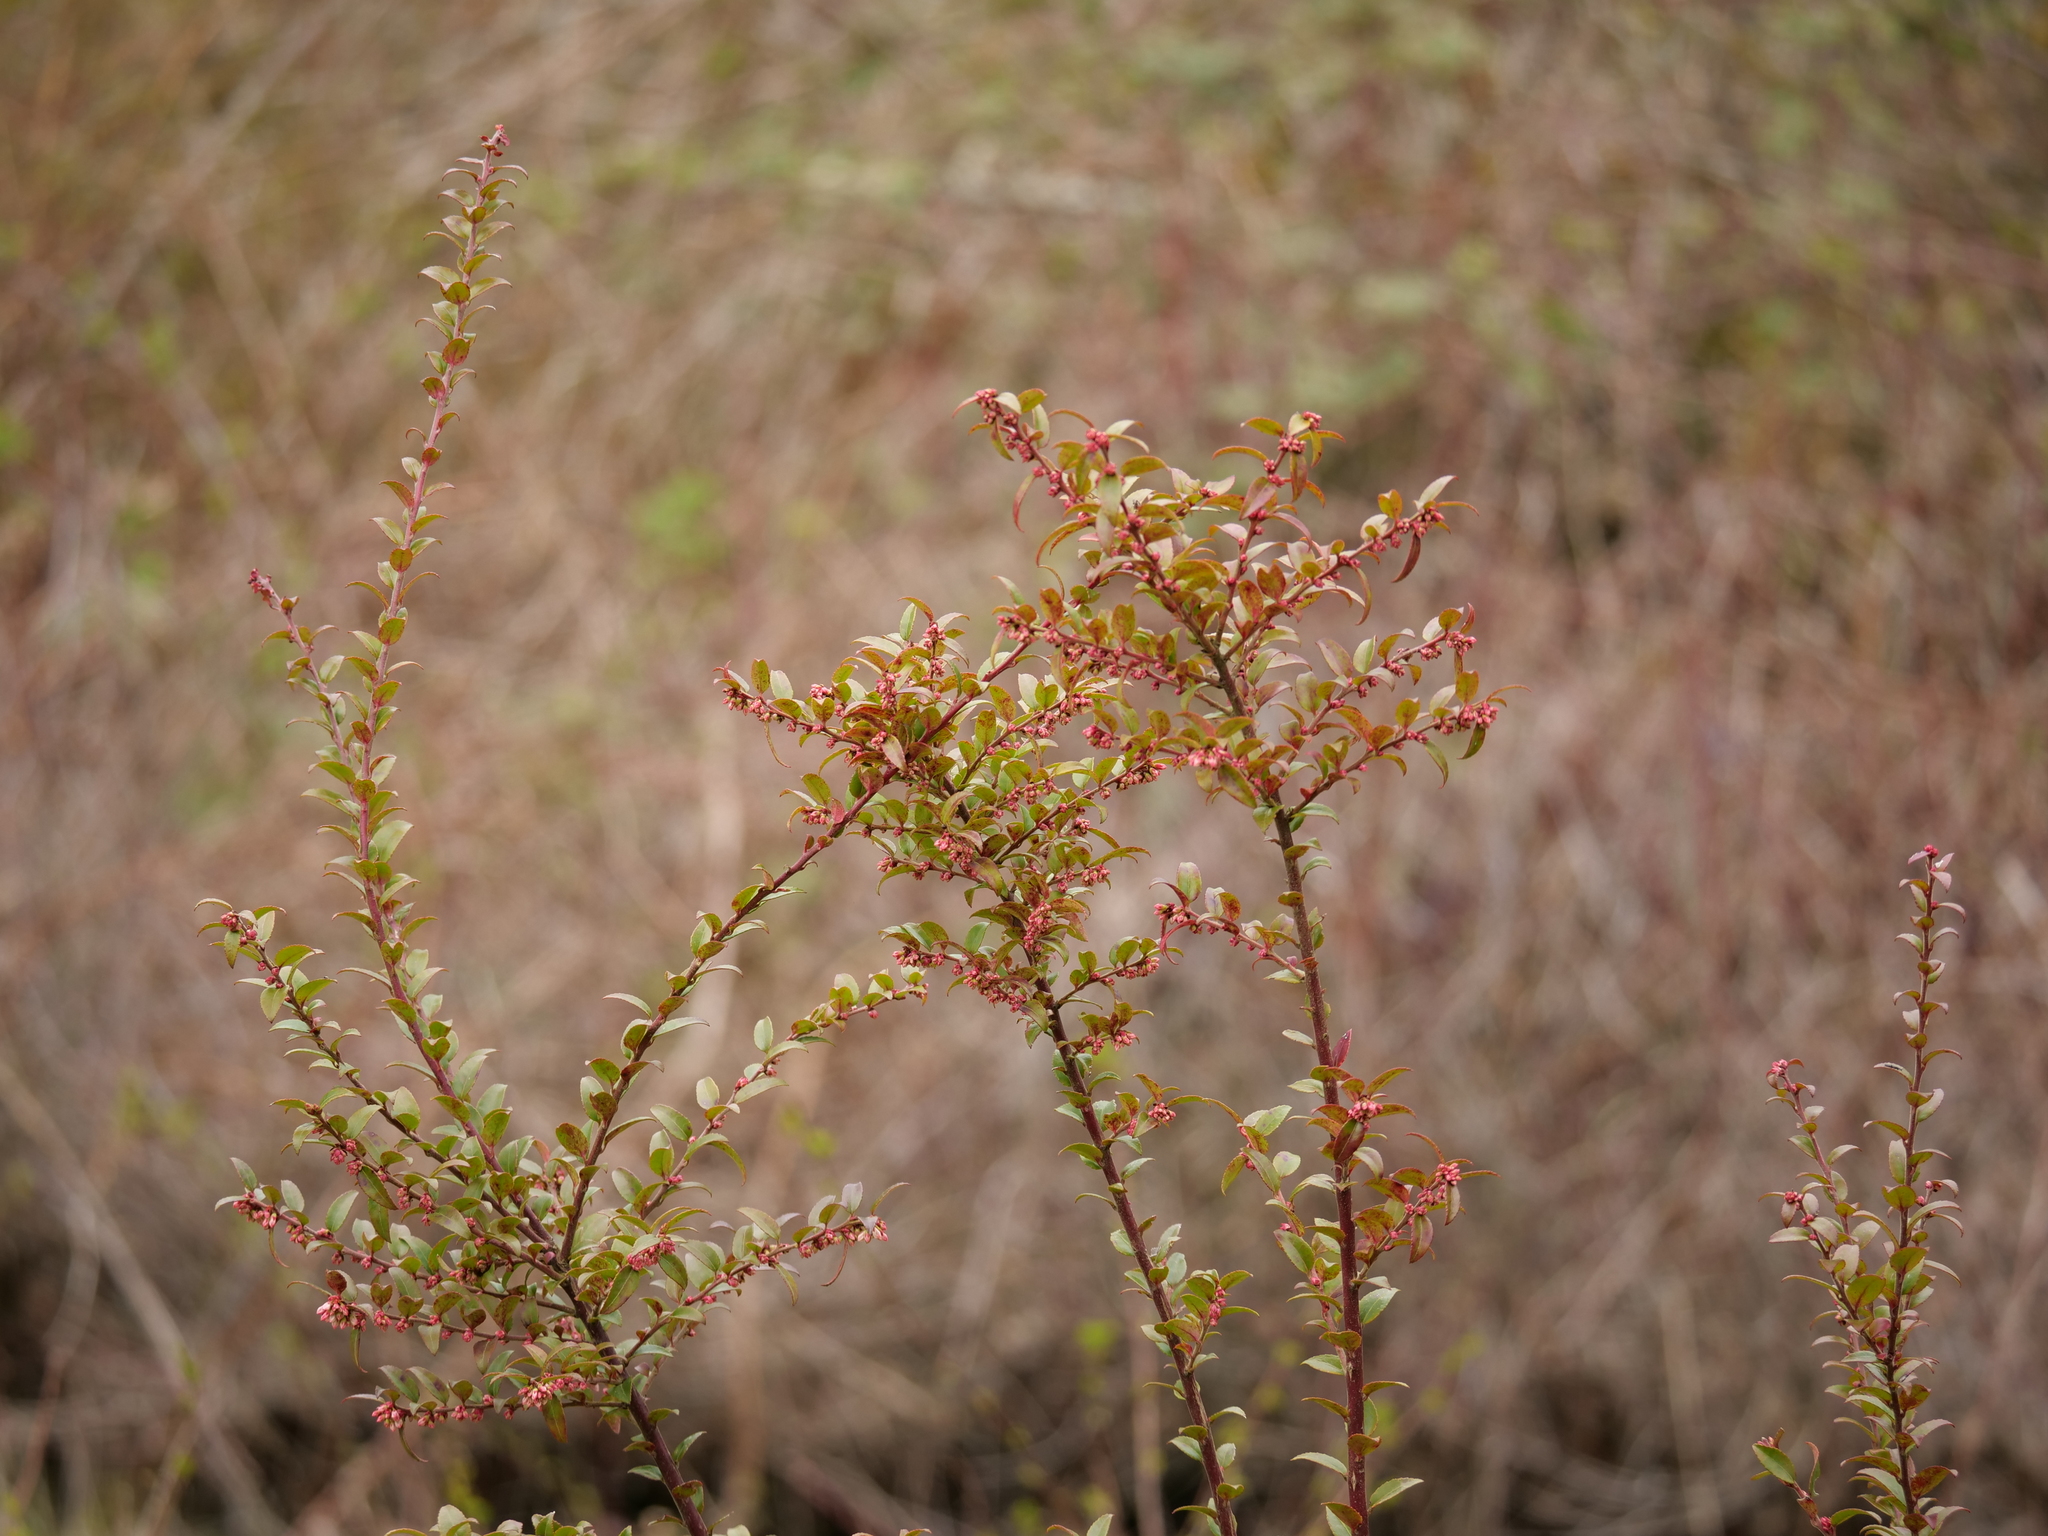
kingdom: Plantae
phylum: Tracheophyta
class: Magnoliopsida
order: Ericales
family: Ericaceae
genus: Vaccinium
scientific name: Vaccinium ovatum
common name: California-huckleberry
